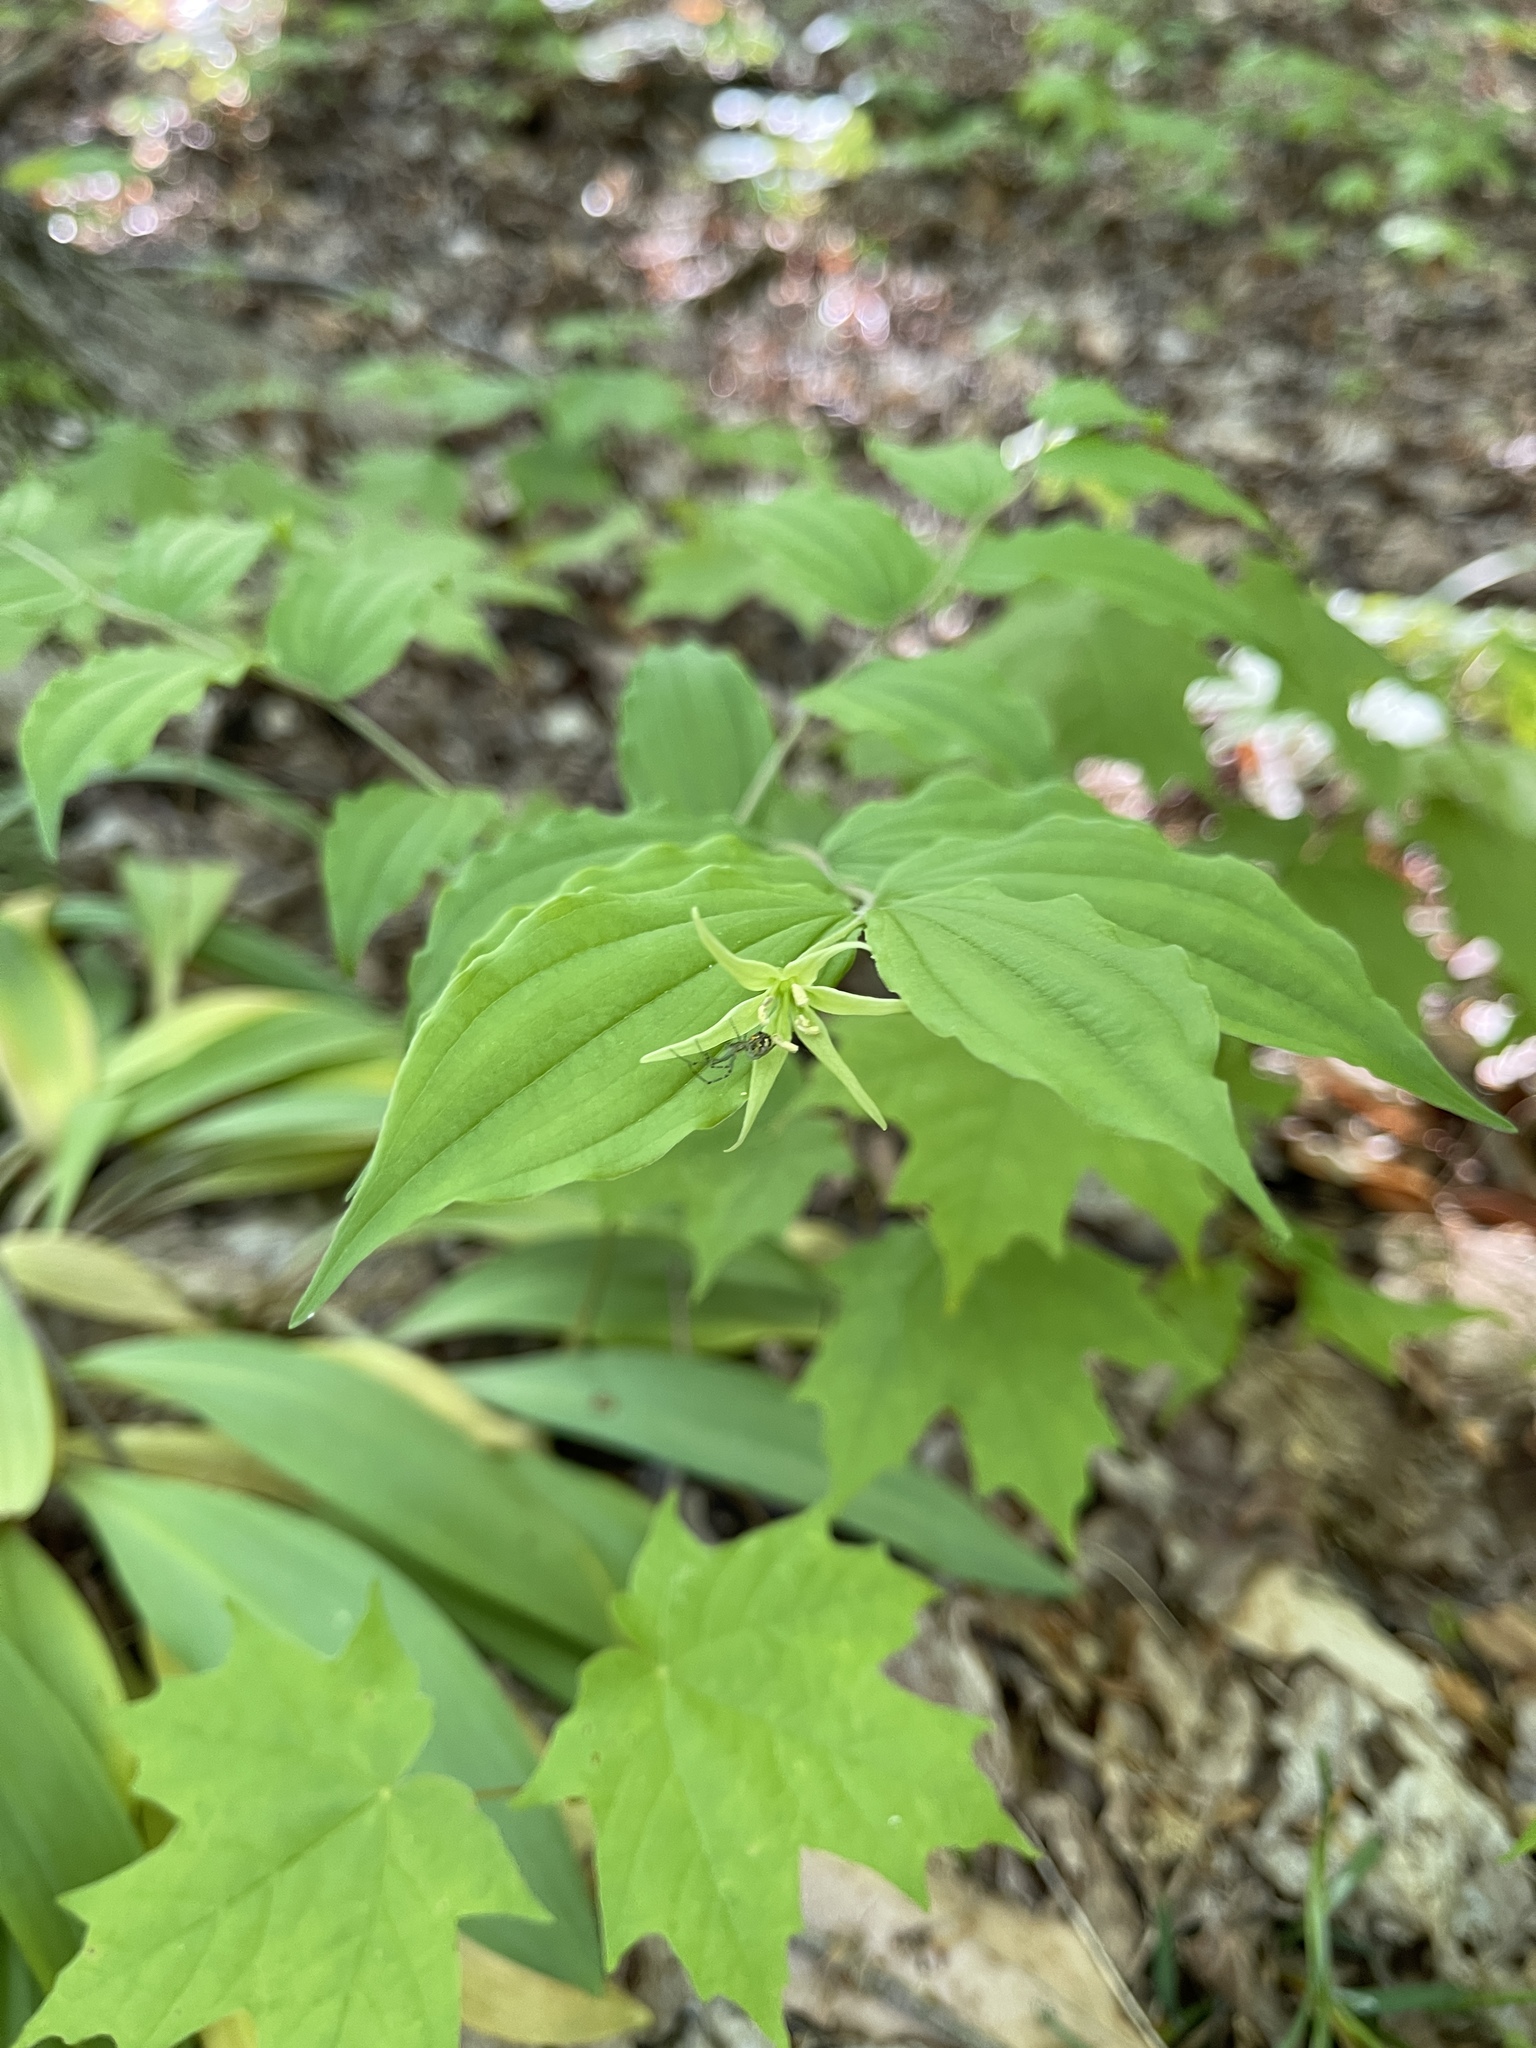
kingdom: Animalia
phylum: Arthropoda
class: Arachnida
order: Araneae
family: Tetragnathidae
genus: Leucauge
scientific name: Leucauge venusta
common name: Longjawed orb weavers
